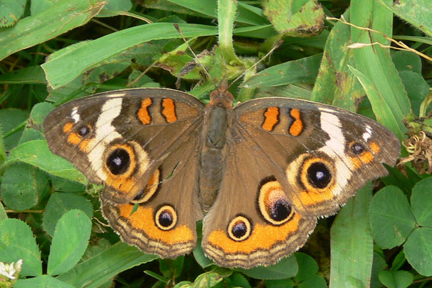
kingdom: Animalia
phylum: Arthropoda
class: Insecta
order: Lepidoptera
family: Nymphalidae
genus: Junonia
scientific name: Junonia coenia
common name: Common buckeye
